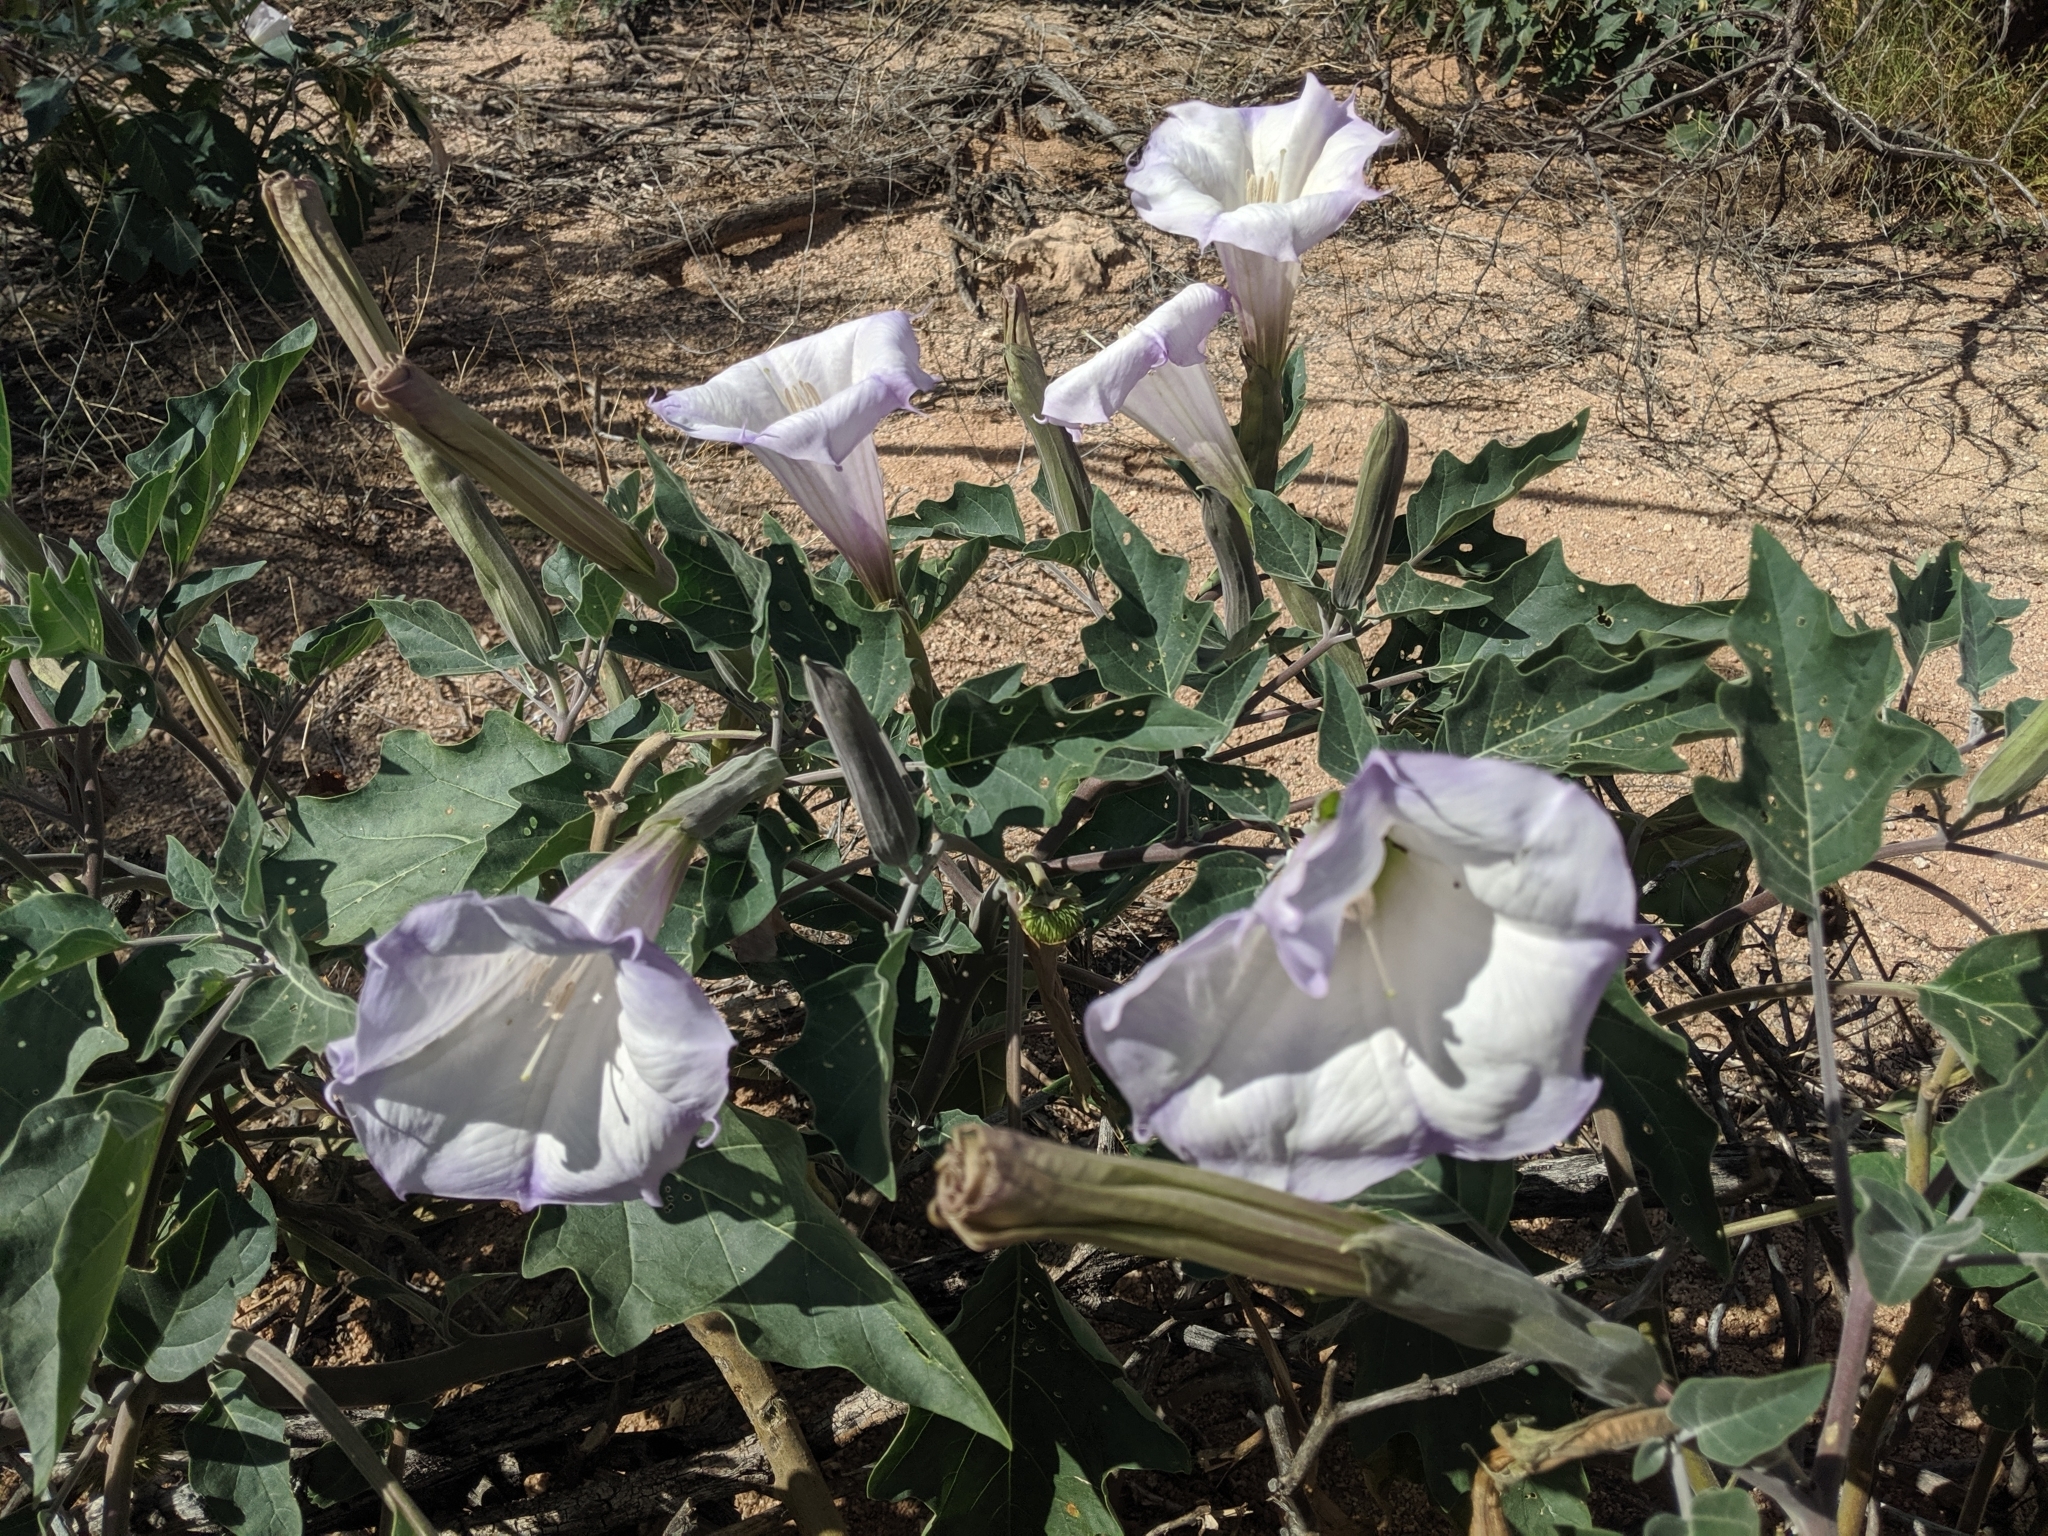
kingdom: Plantae
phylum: Tracheophyta
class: Magnoliopsida
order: Solanales
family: Solanaceae
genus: Datura
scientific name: Datura wrightii
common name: Sacred thorn-apple
